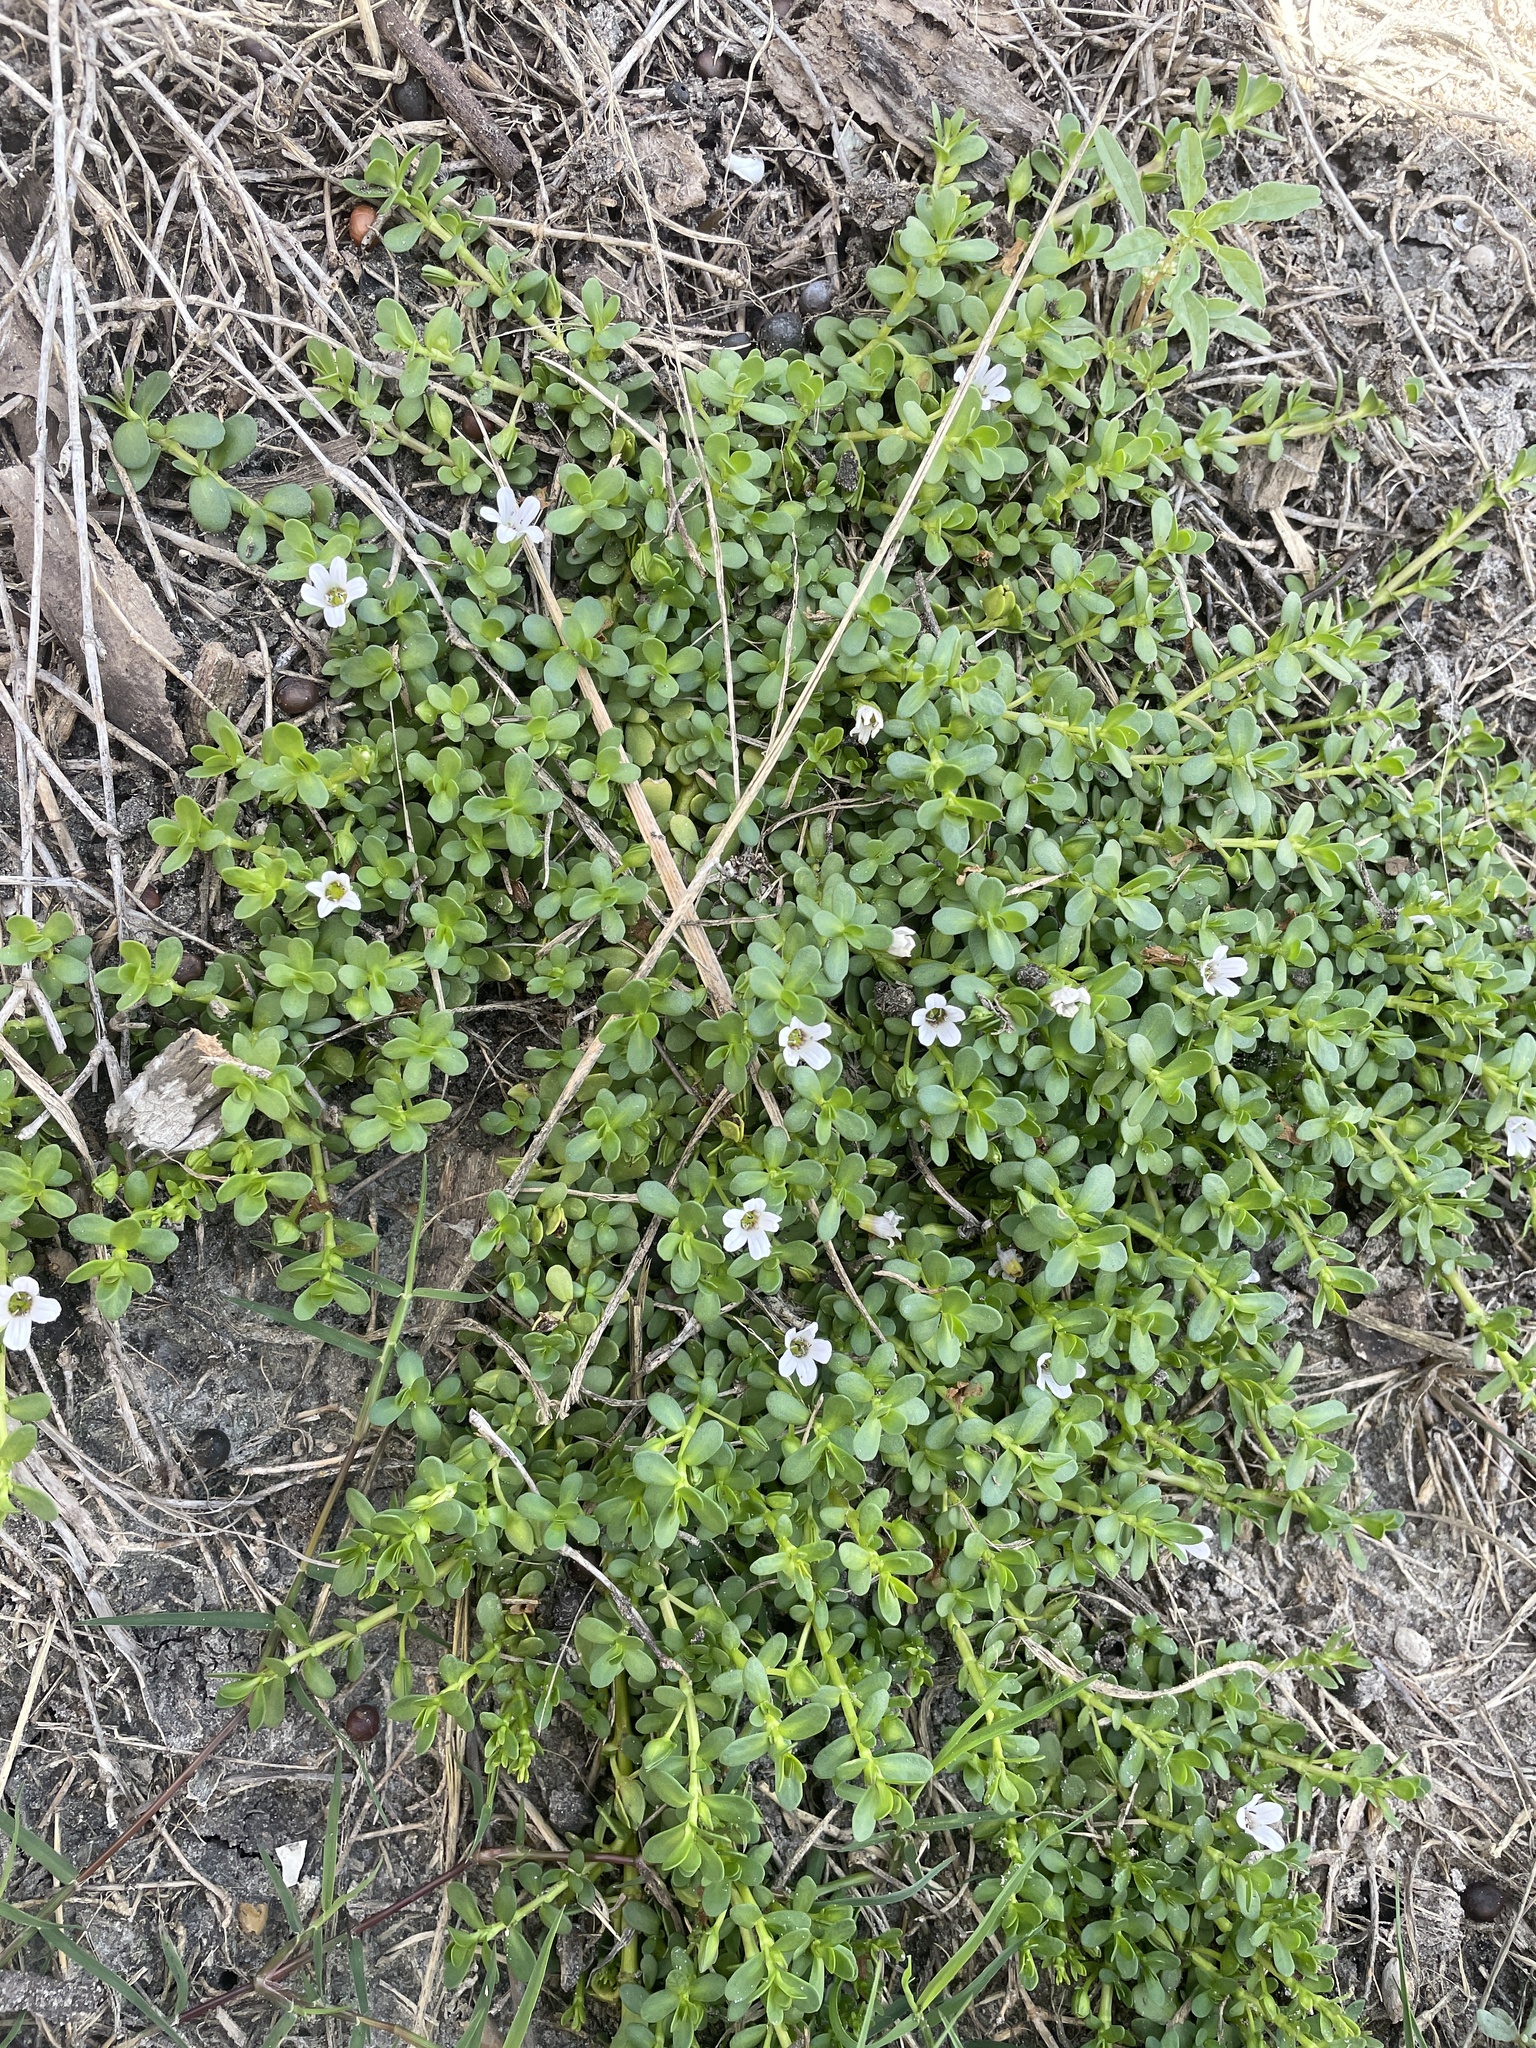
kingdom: Plantae
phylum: Tracheophyta
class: Magnoliopsida
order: Lamiales
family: Plantaginaceae
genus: Bacopa
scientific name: Bacopa monnieri
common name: Indian-pennywort
